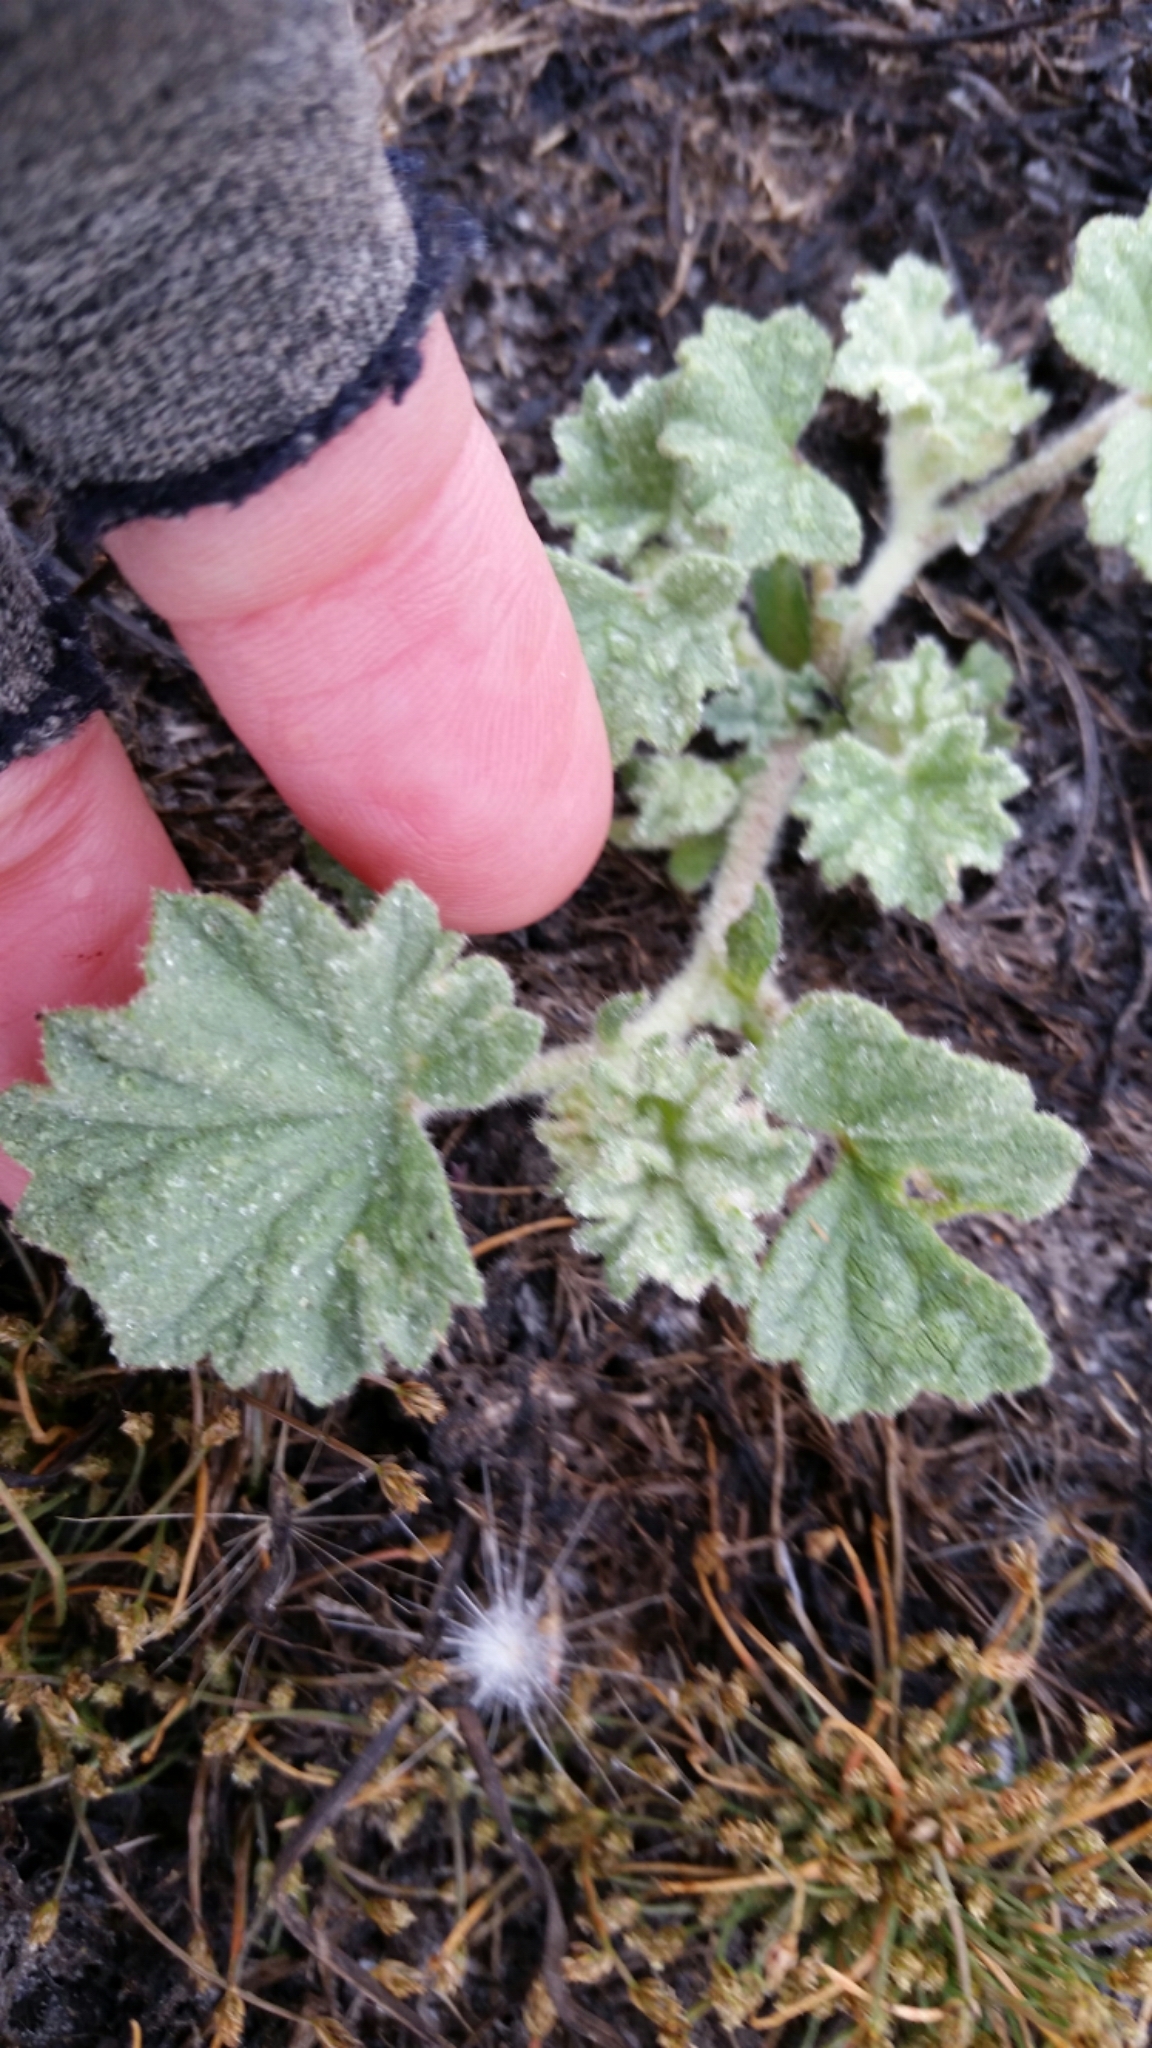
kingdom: Plantae
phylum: Tracheophyta
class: Magnoliopsida
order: Malvales
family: Malvaceae
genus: Malvella
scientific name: Malvella leprosa
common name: Alkali-mallow
